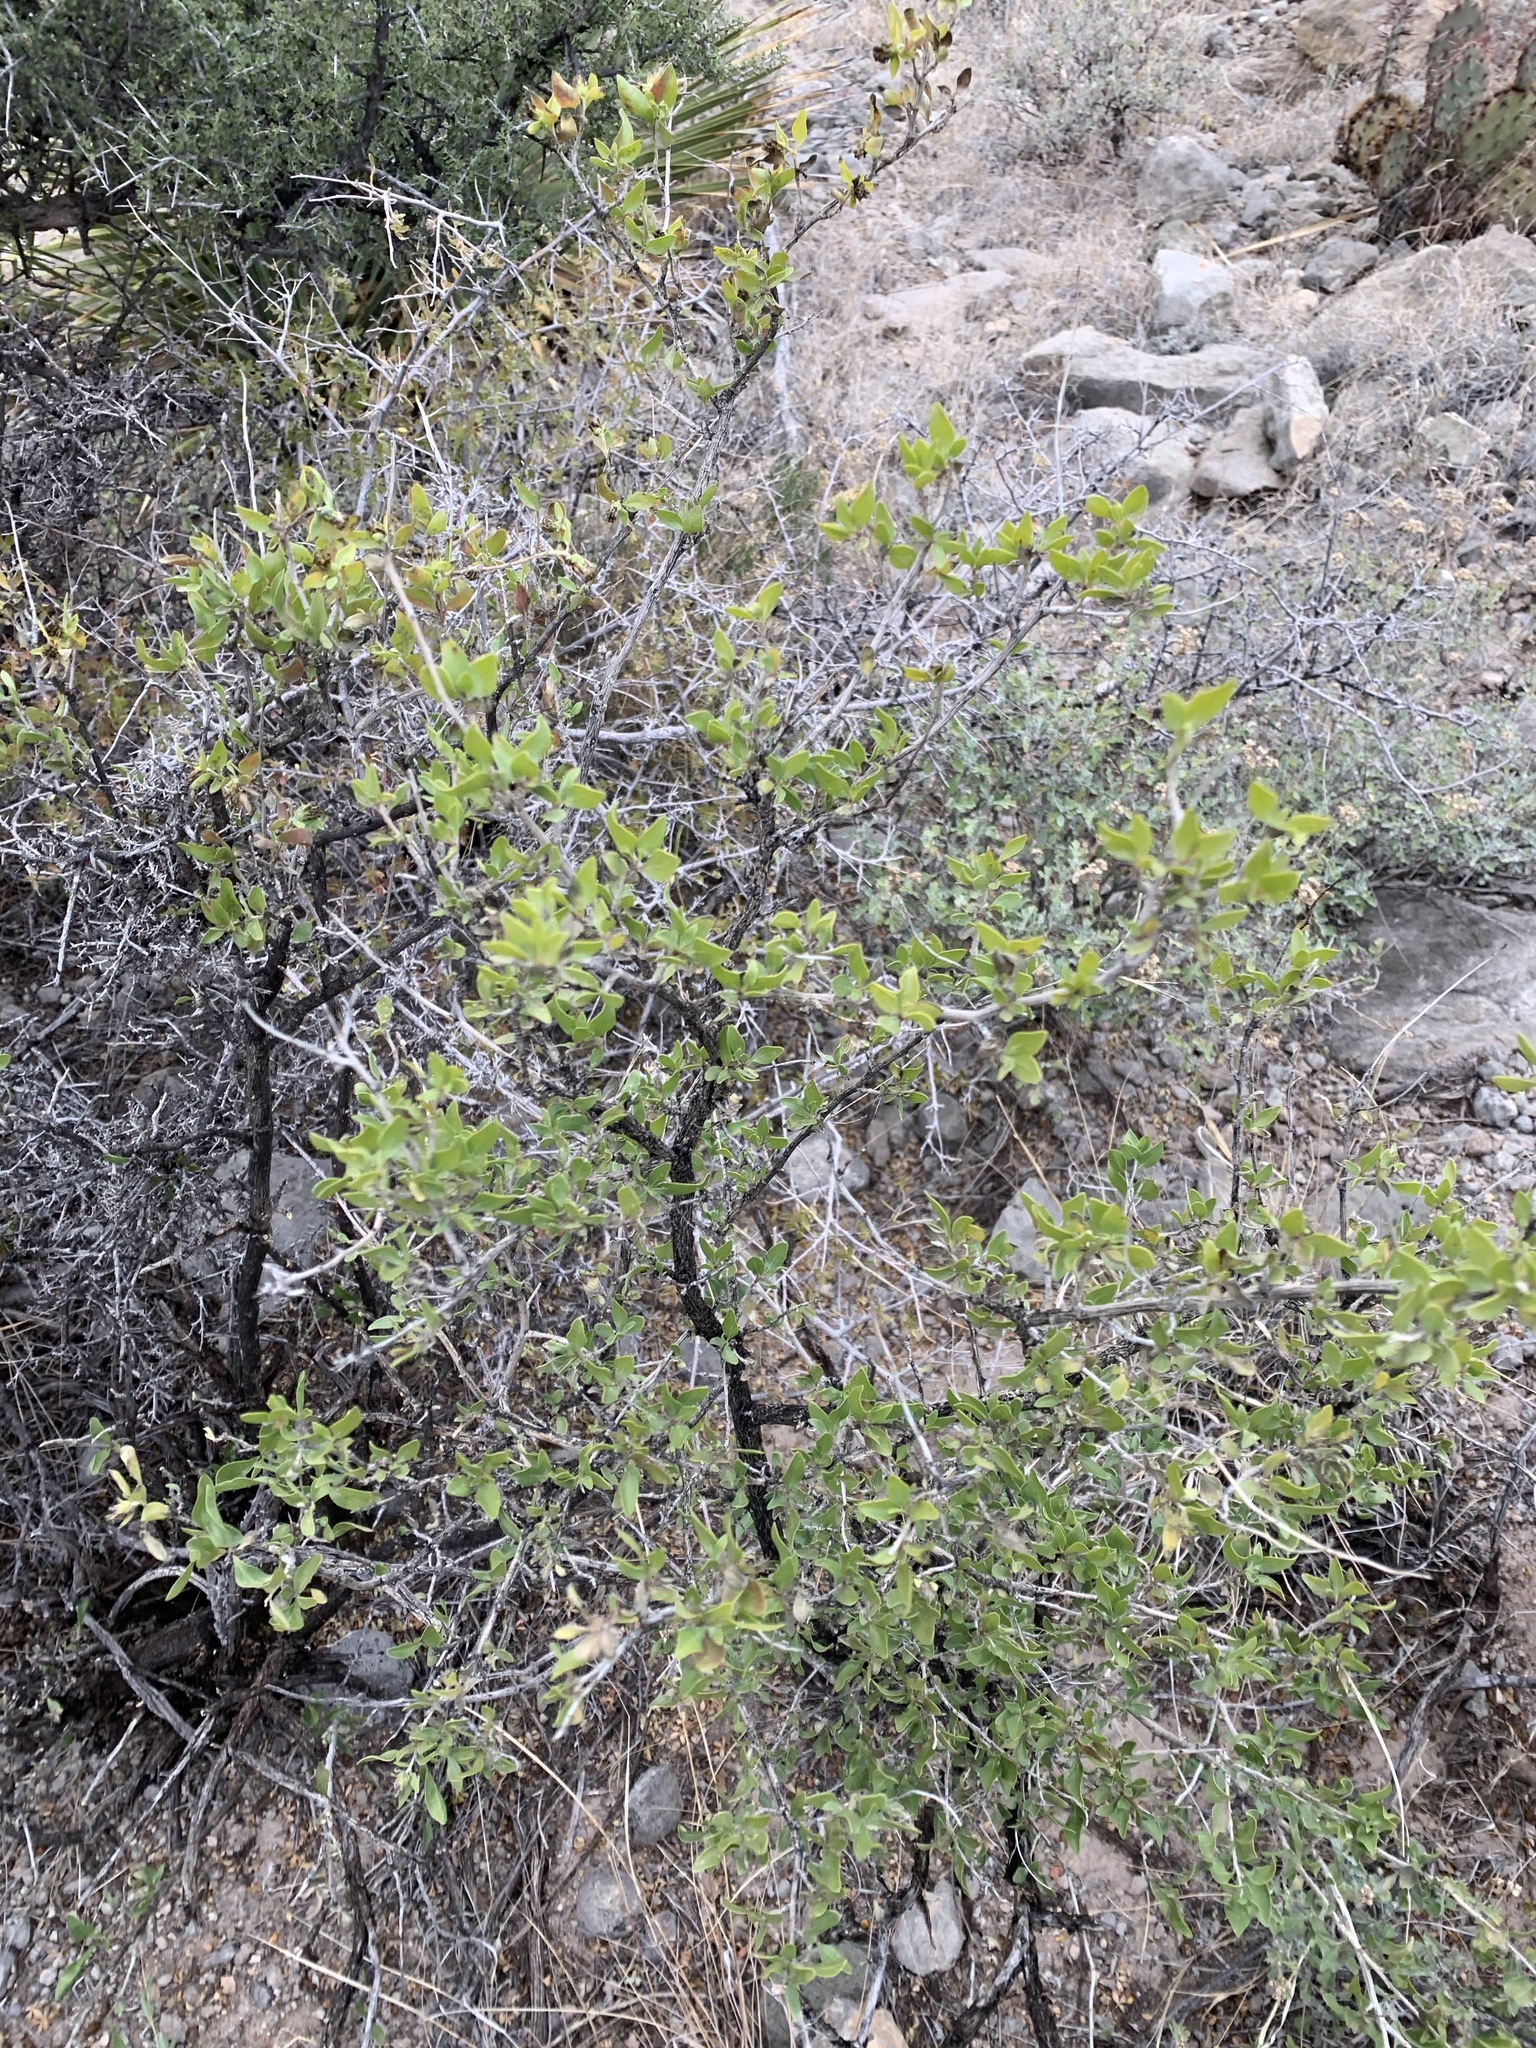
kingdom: Plantae
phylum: Tracheophyta
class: Magnoliopsida
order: Asterales
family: Asteraceae
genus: Flourensia
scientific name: Flourensia cernua
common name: Varnishbush
